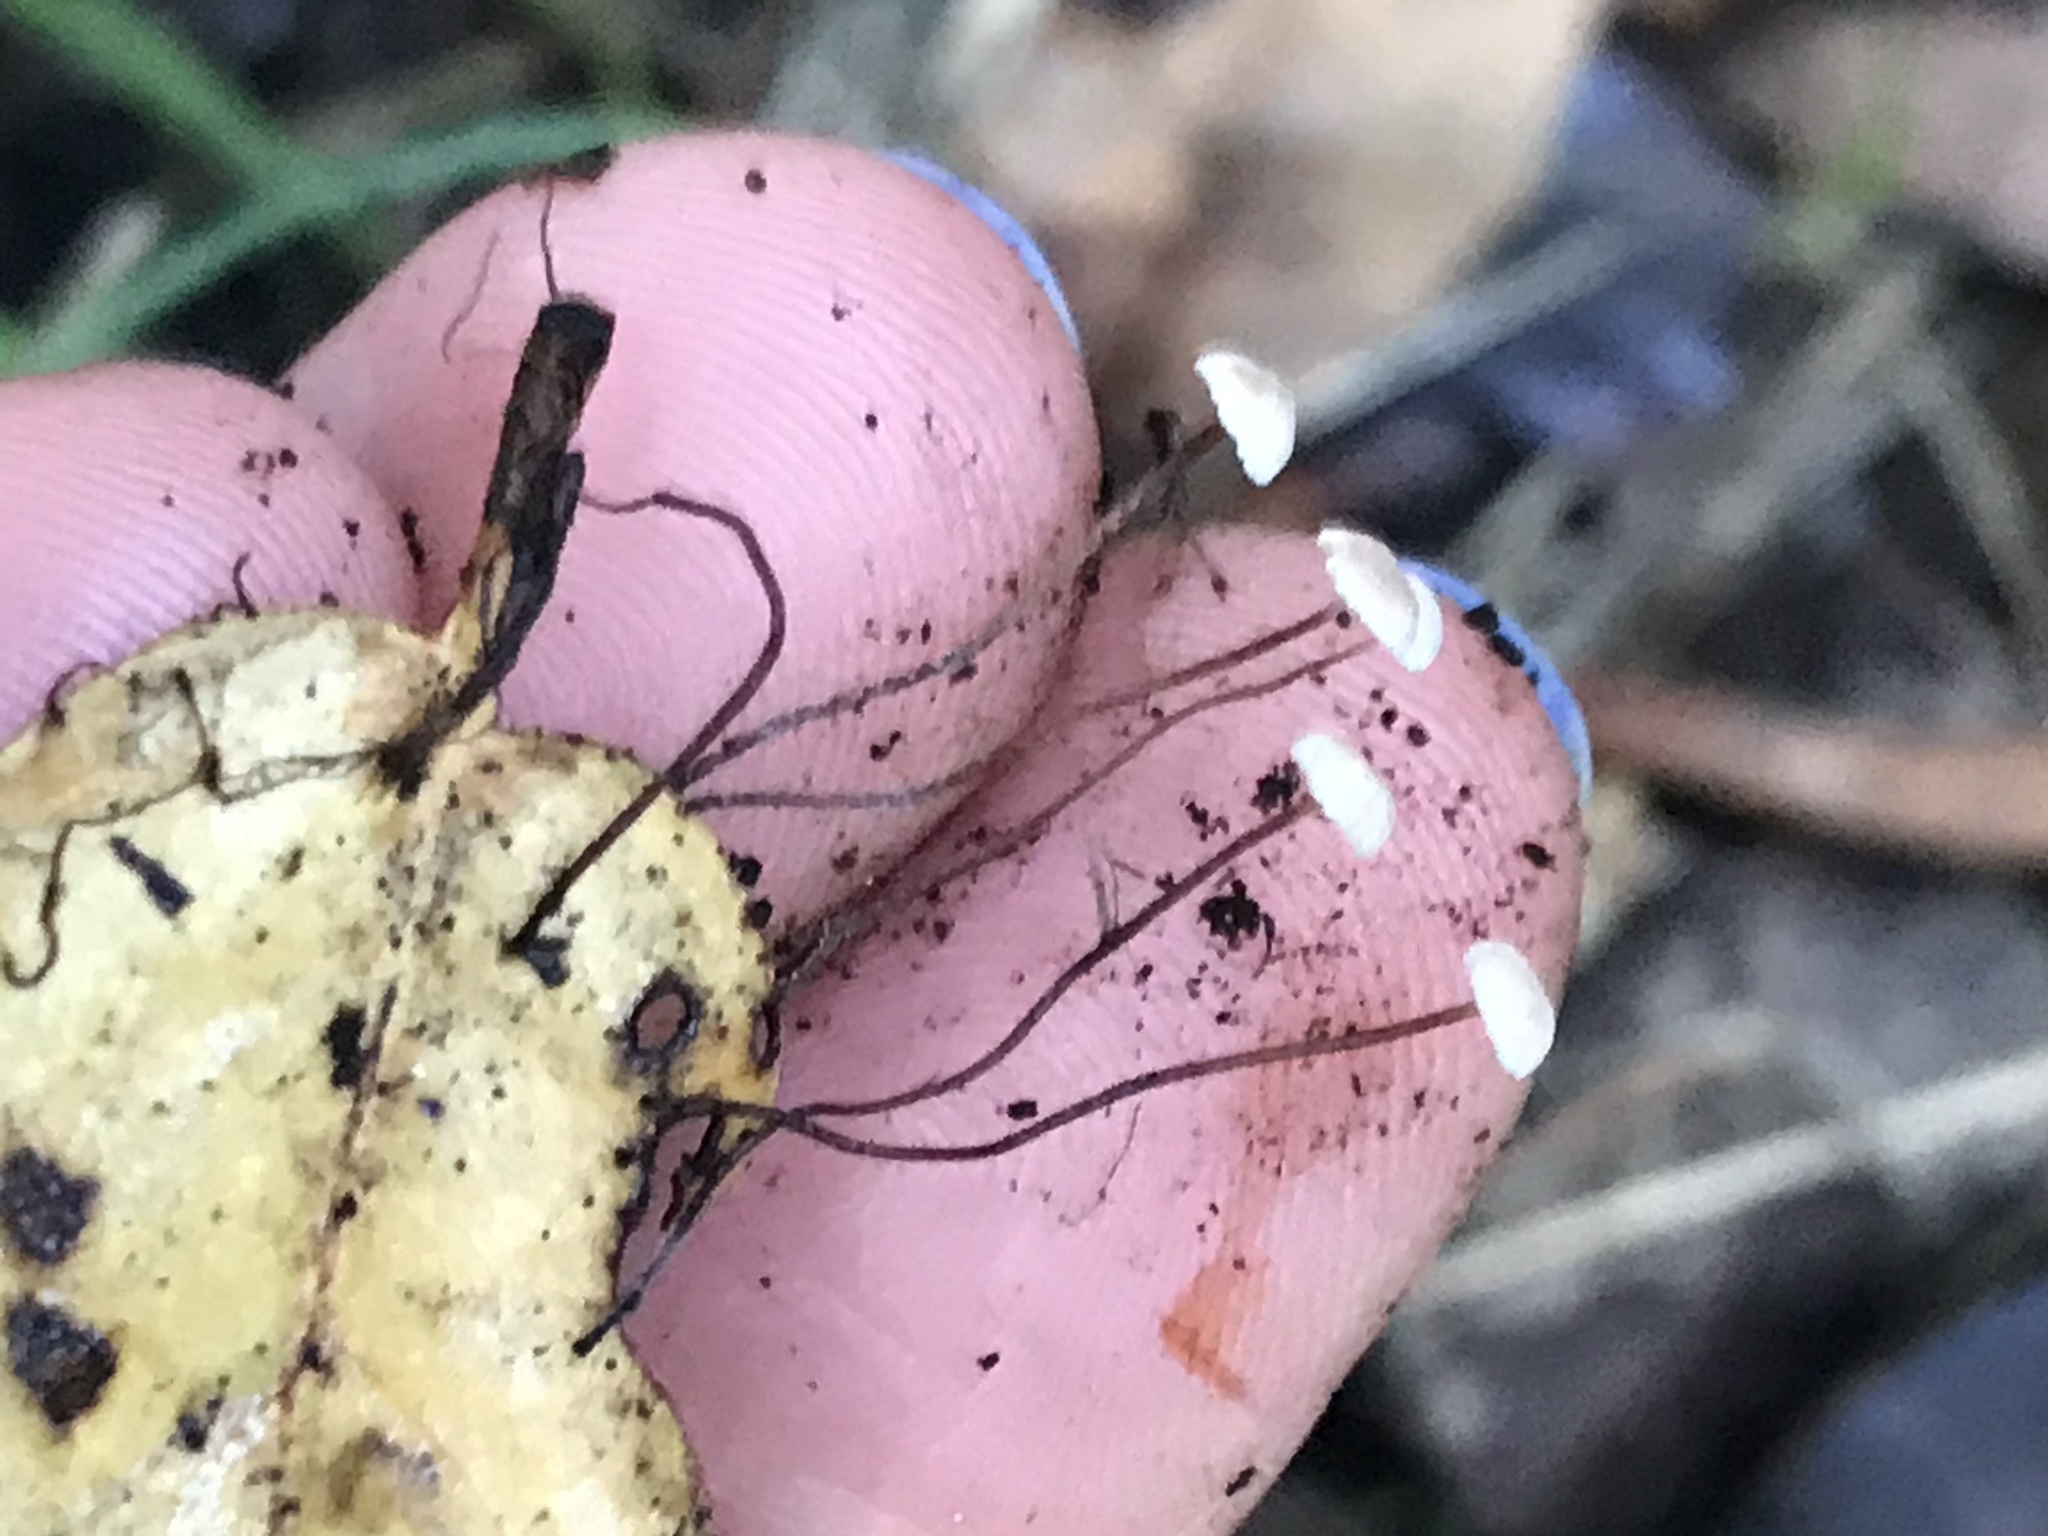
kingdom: Fungi
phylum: Basidiomycota
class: Agaricomycetes
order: Agaricales
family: Omphalotaceae
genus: Collybiopsis
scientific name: Collybiopsis quercophila
